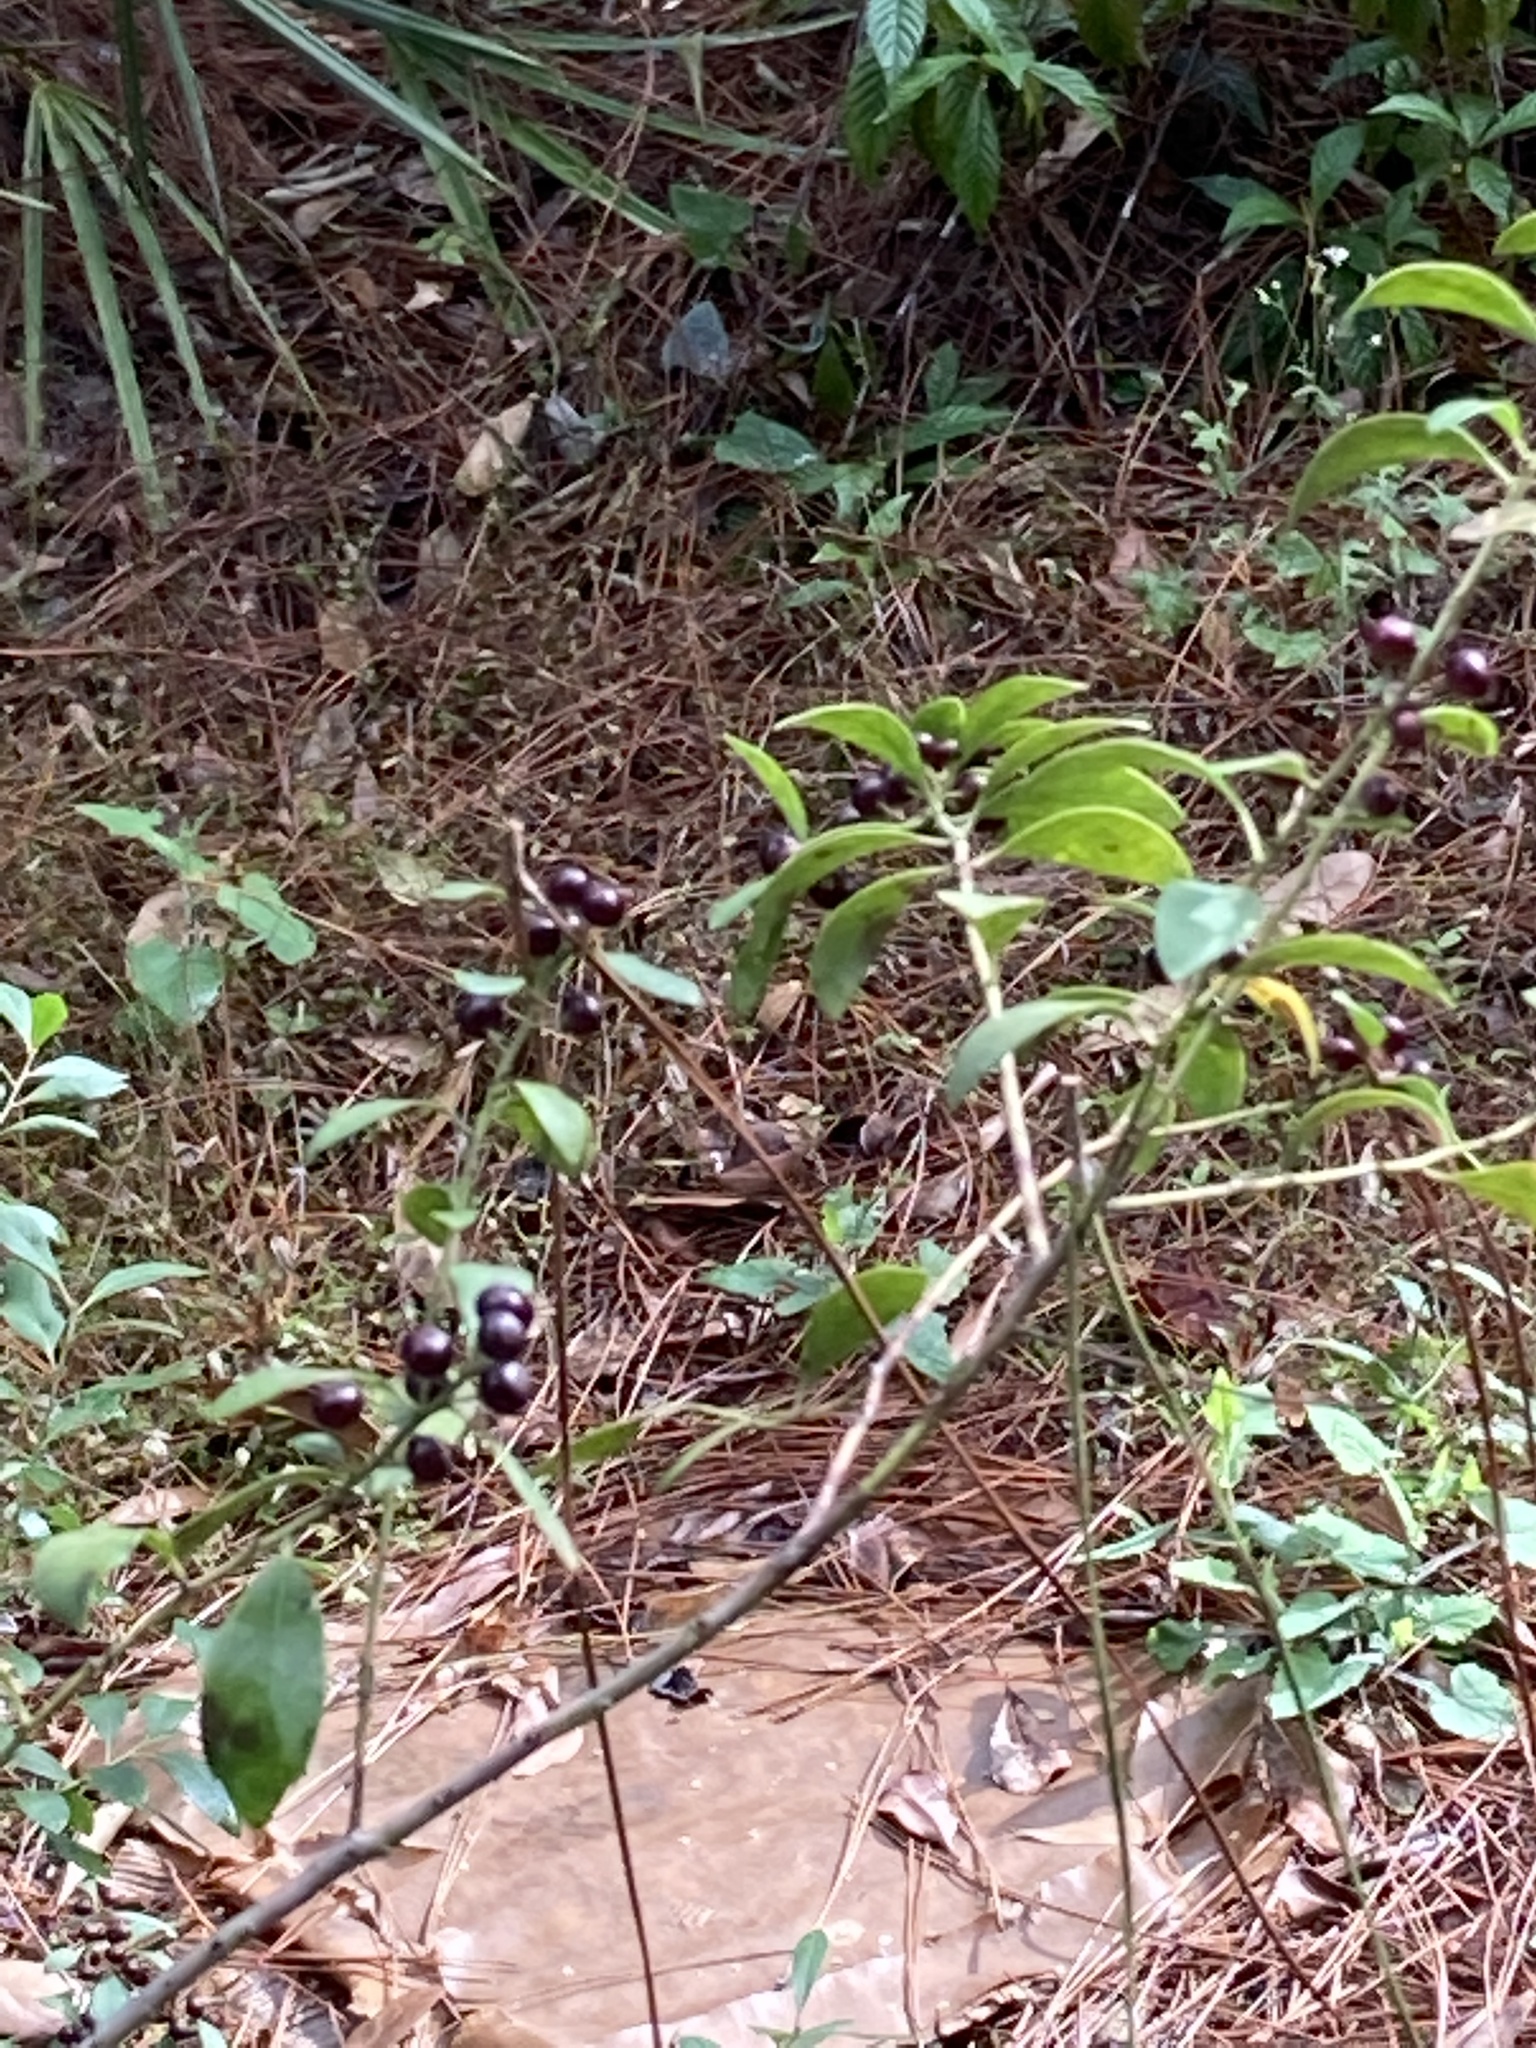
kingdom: Plantae
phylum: Tracheophyta
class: Magnoliopsida
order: Aquifoliales
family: Aquifoliaceae
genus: Ilex
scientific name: Ilex glabra
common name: Bitter gallberry
